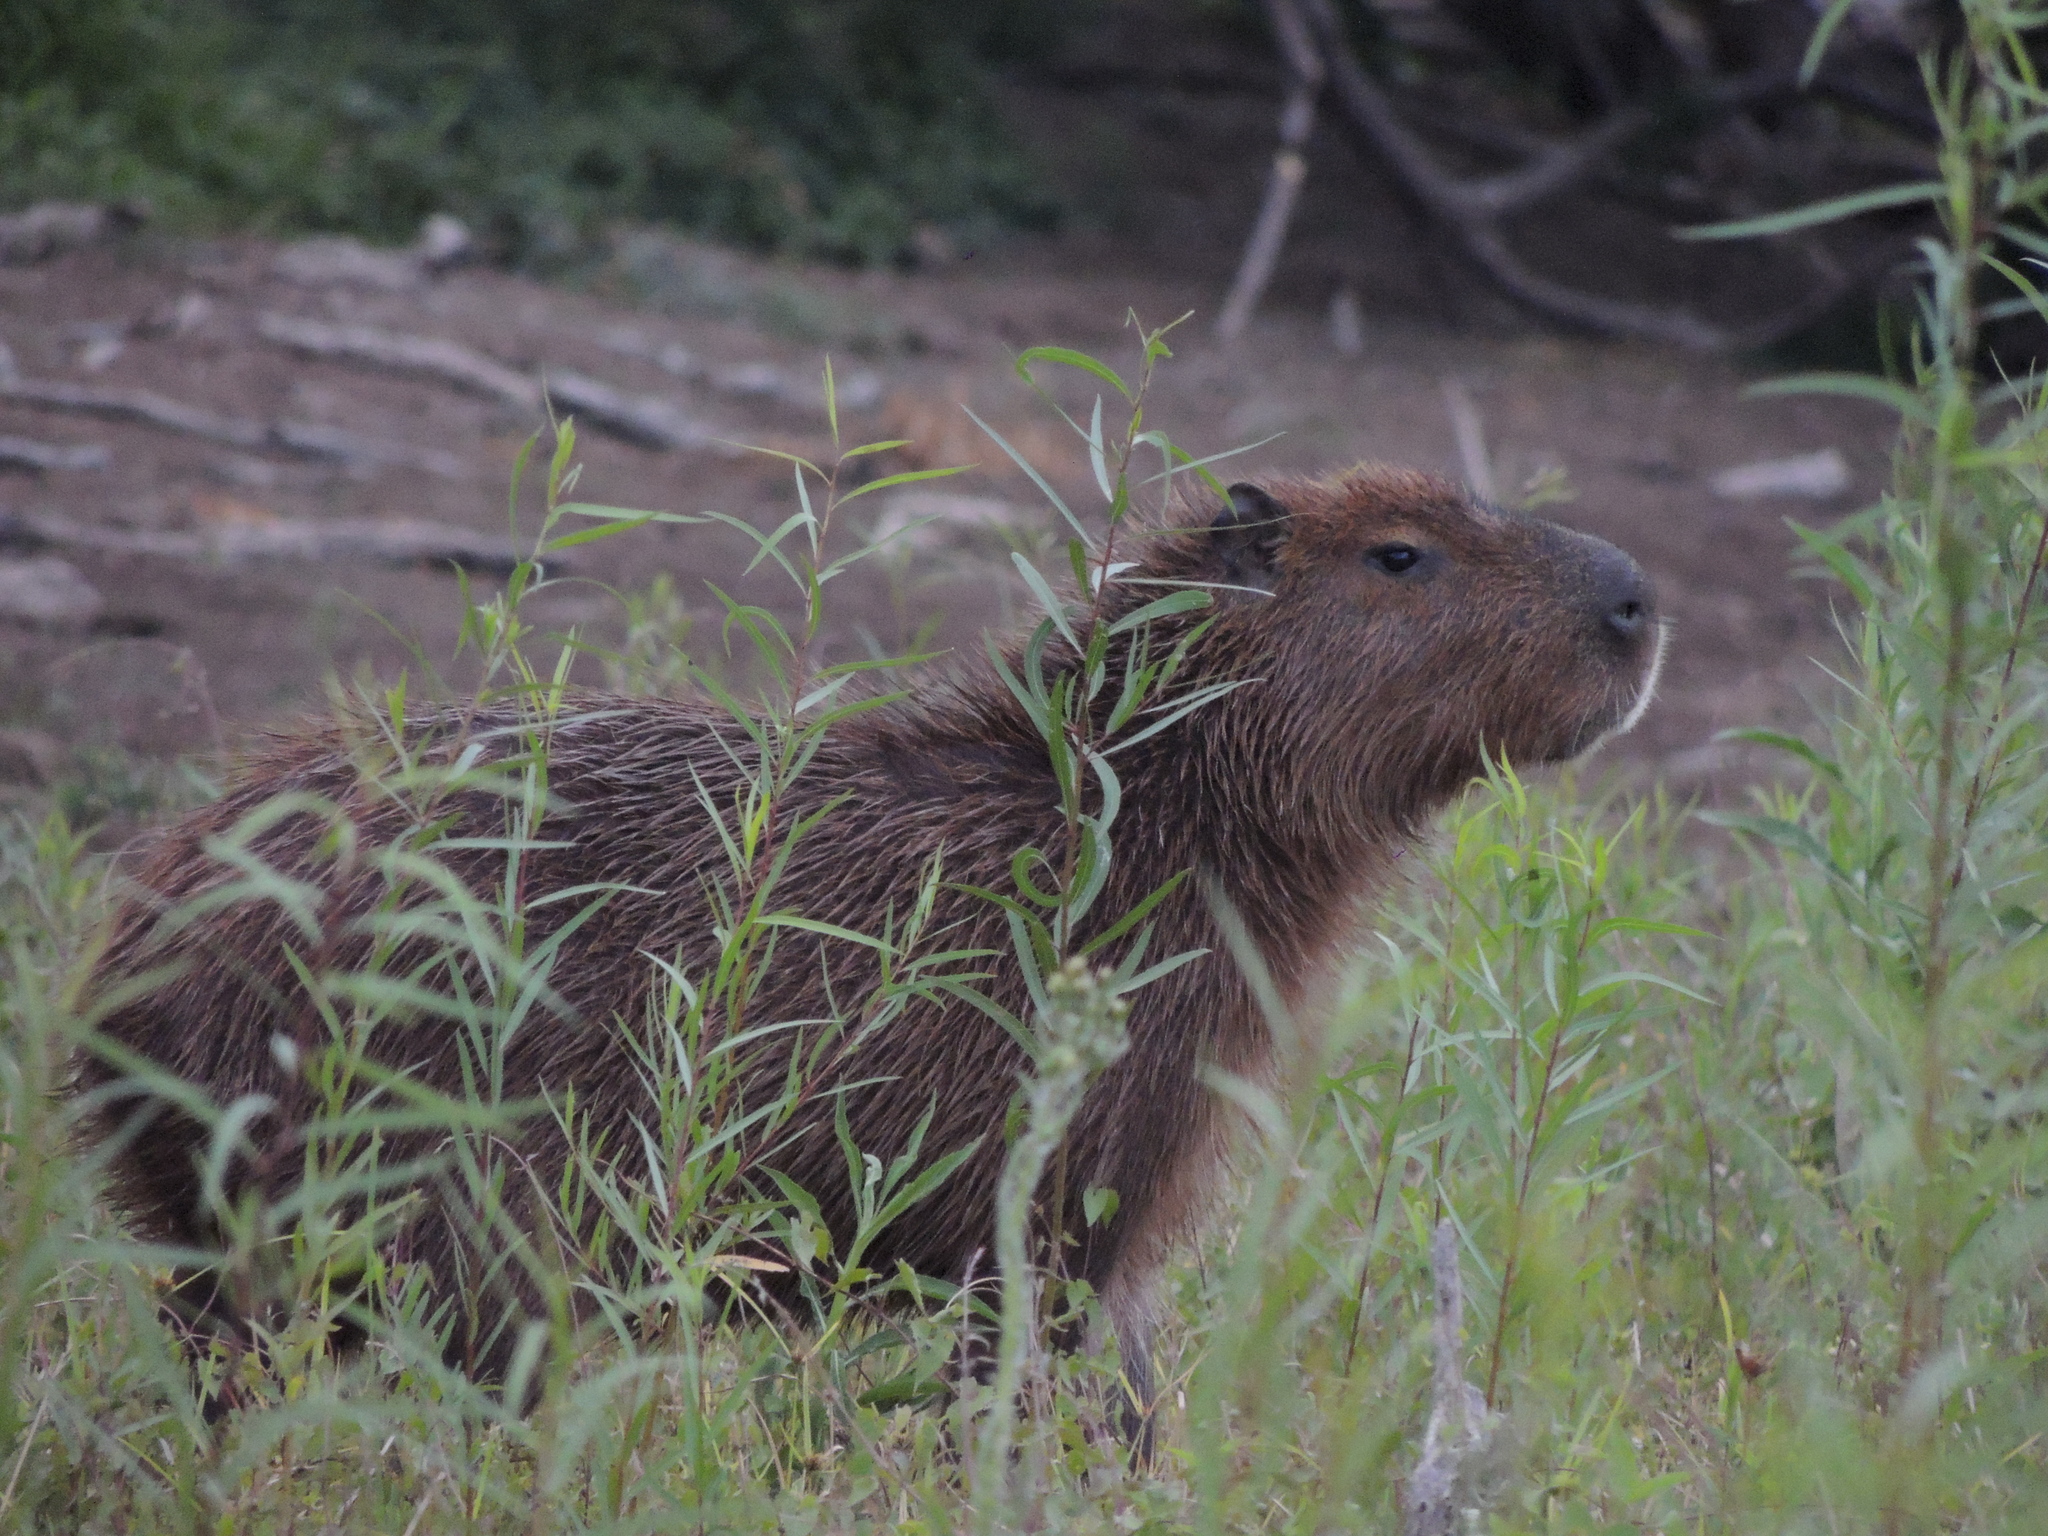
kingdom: Animalia
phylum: Chordata
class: Mammalia
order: Rodentia
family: Caviidae
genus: Hydrochoerus
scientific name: Hydrochoerus hydrochaeris
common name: Capybara
